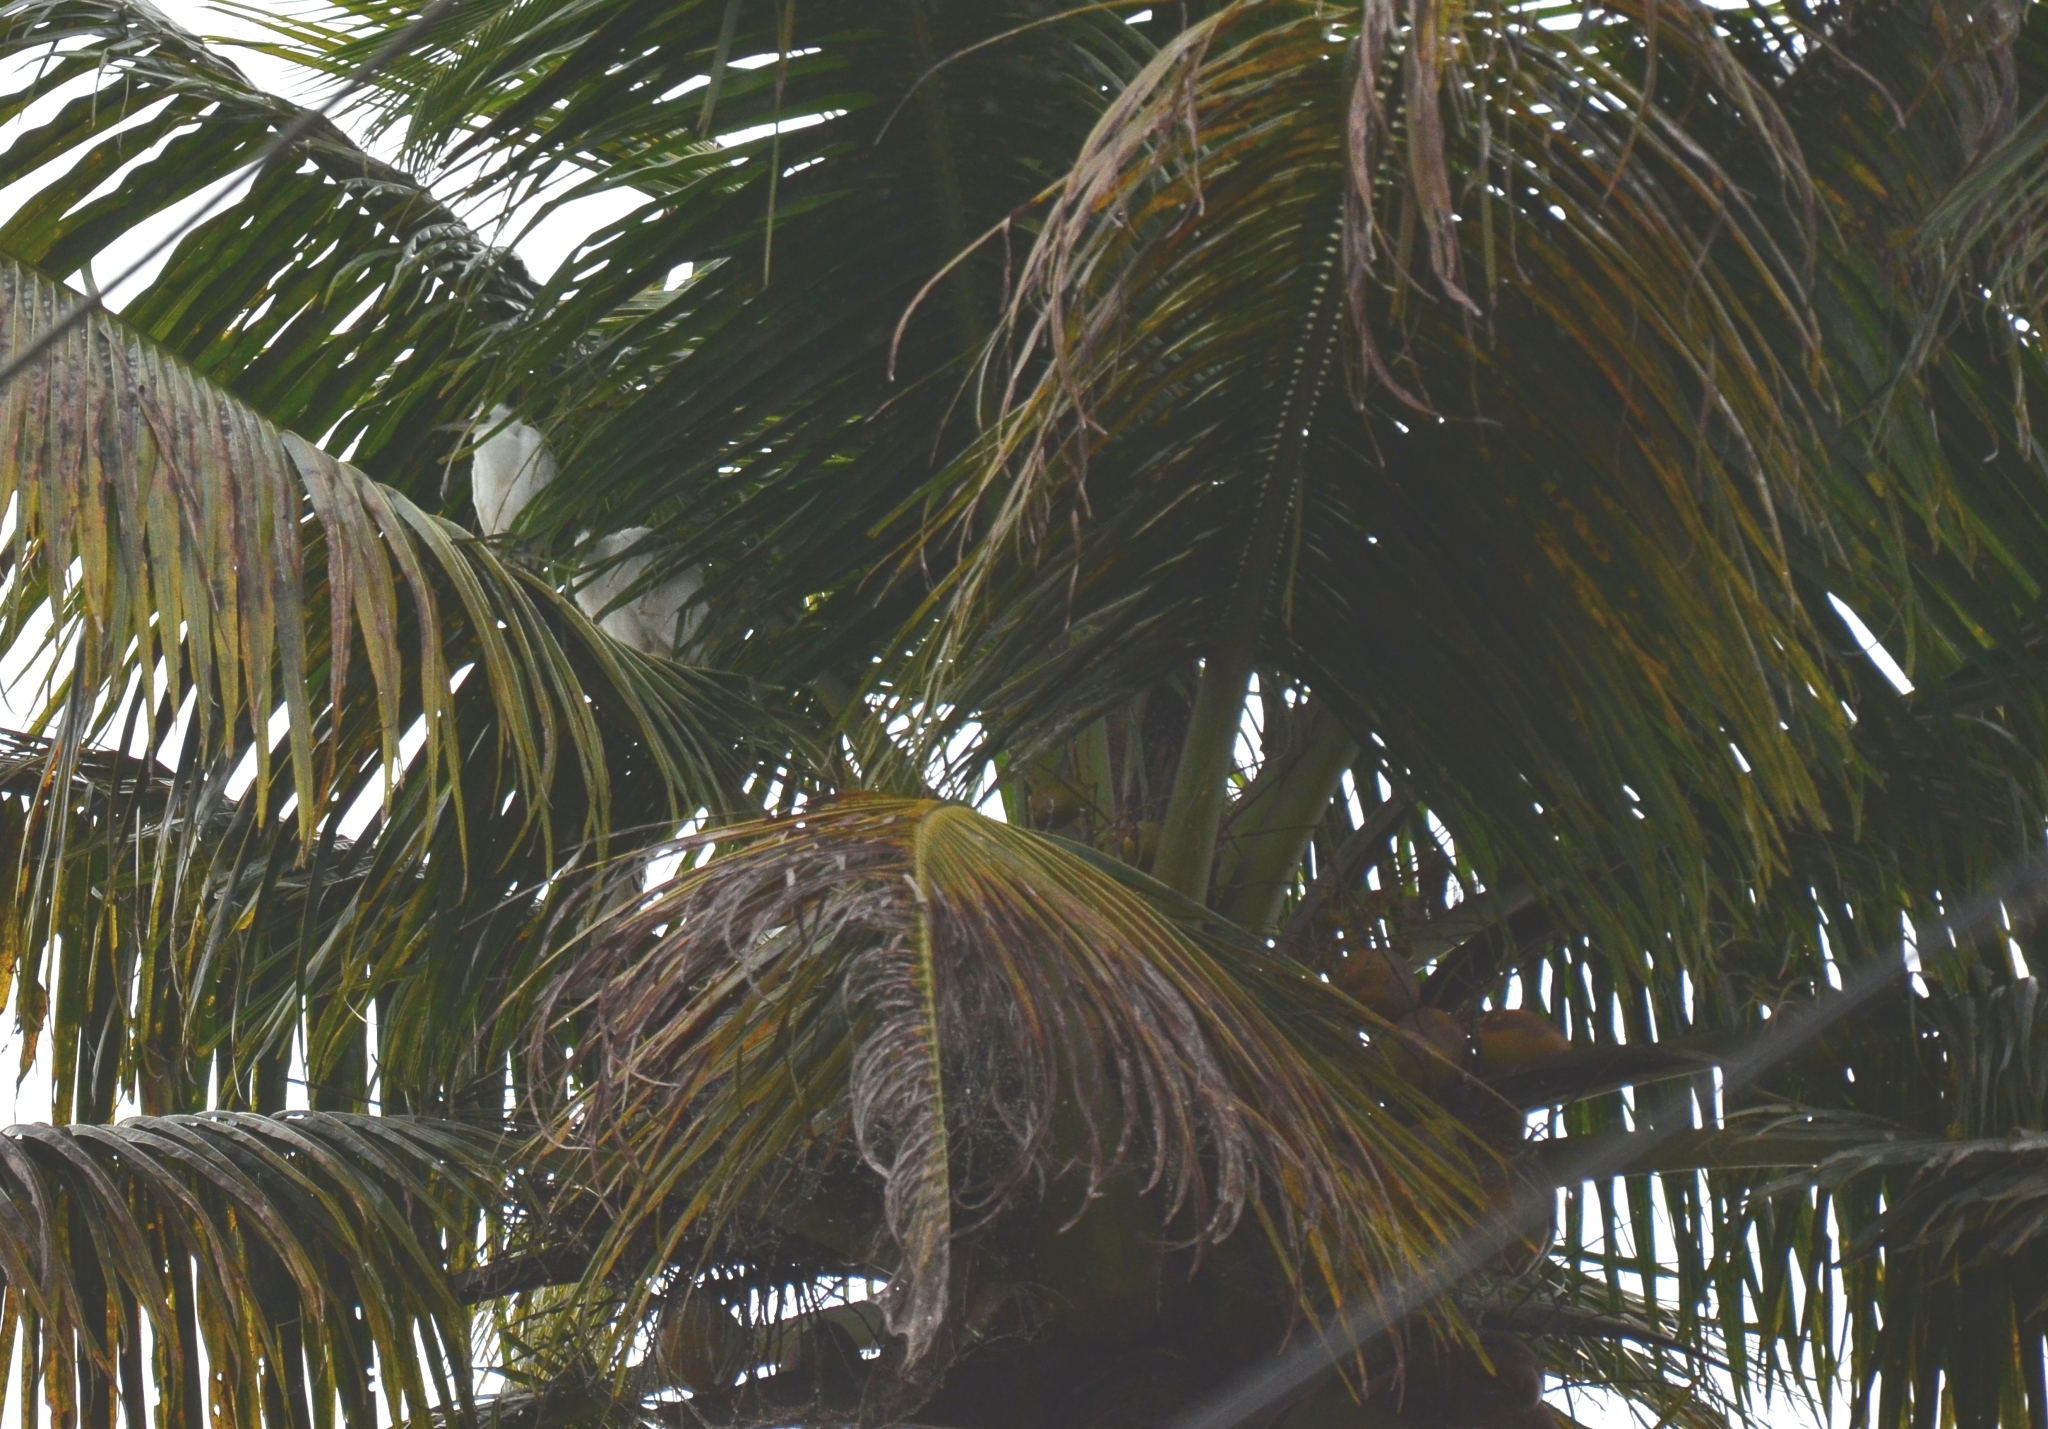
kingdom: Animalia
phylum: Chordata
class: Aves
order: Pelecaniformes
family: Ardeidae
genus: Egretta
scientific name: Egretta garzetta
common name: Little egret
